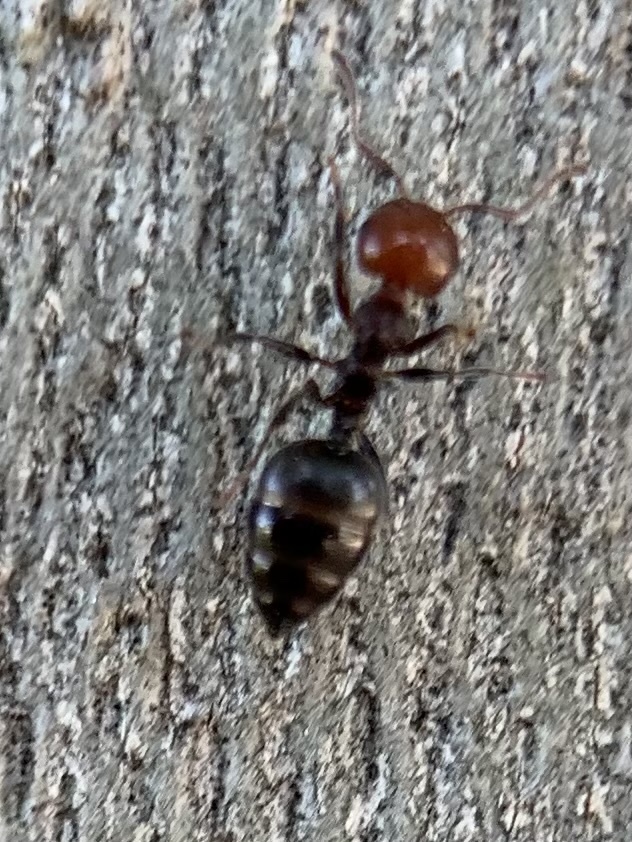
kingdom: Animalia
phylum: Arthropoda
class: Insecta
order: Hymenoptera
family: Formicidae
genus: Crematogaster
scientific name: Crematogaster scutellaris
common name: Fourmi du liège
